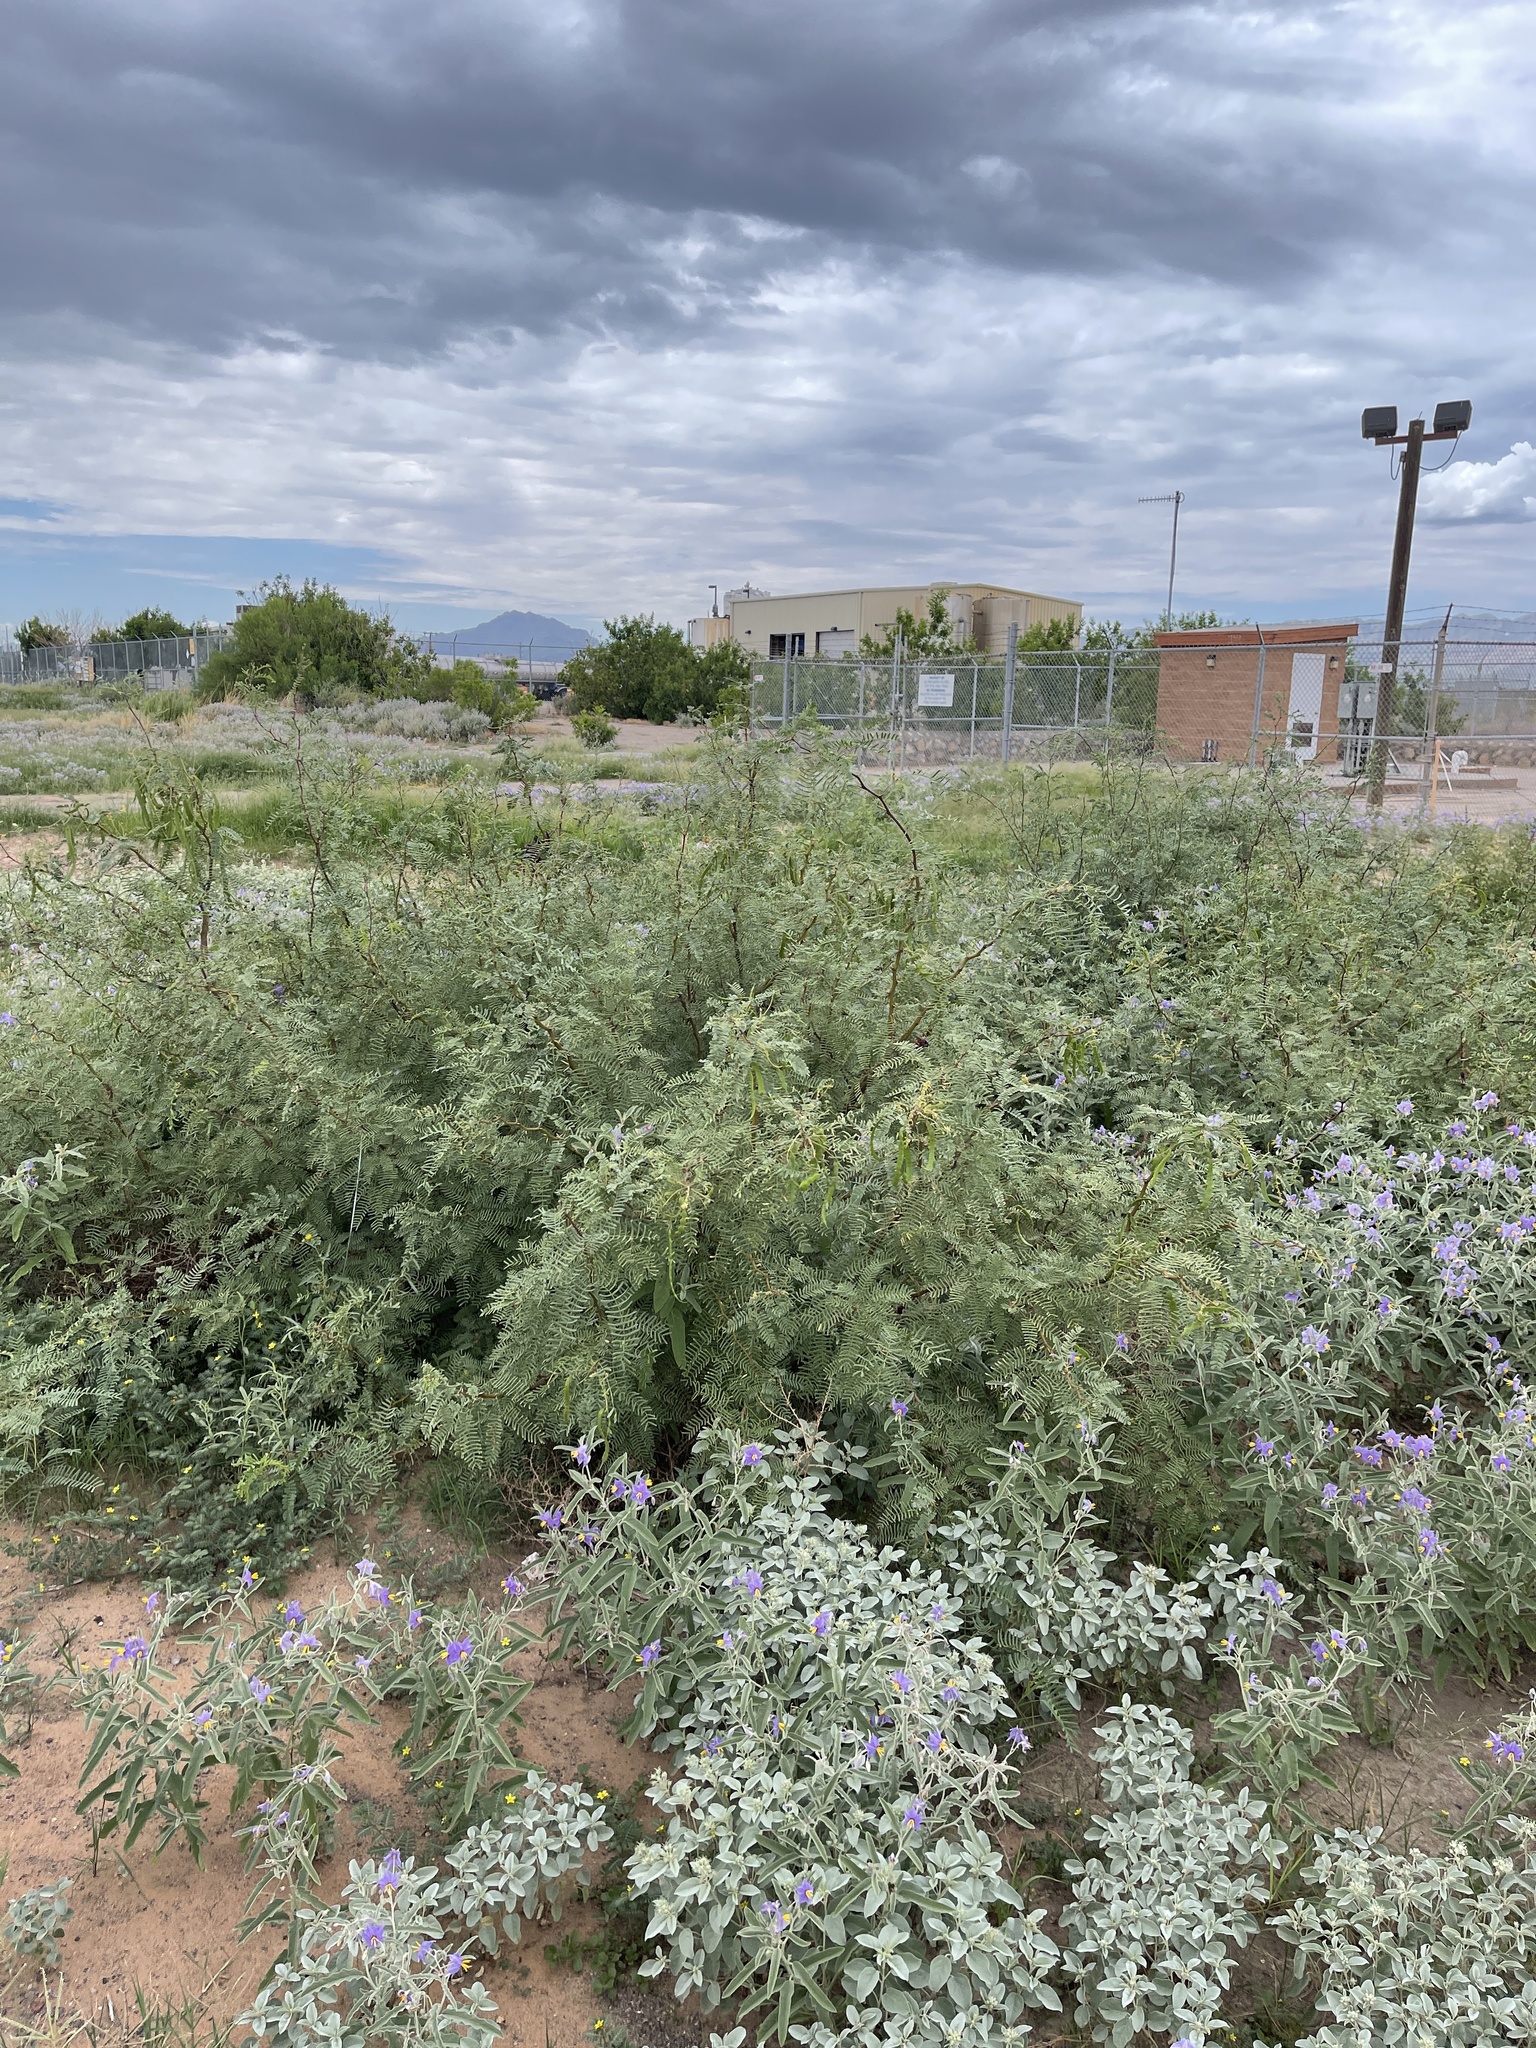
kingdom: Plantae
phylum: Tracheophyta
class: Magnoliopsida
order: Fabales
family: Fabaceae
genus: Prosopis
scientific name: Prosopis glandulosa
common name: Honey mesquite
